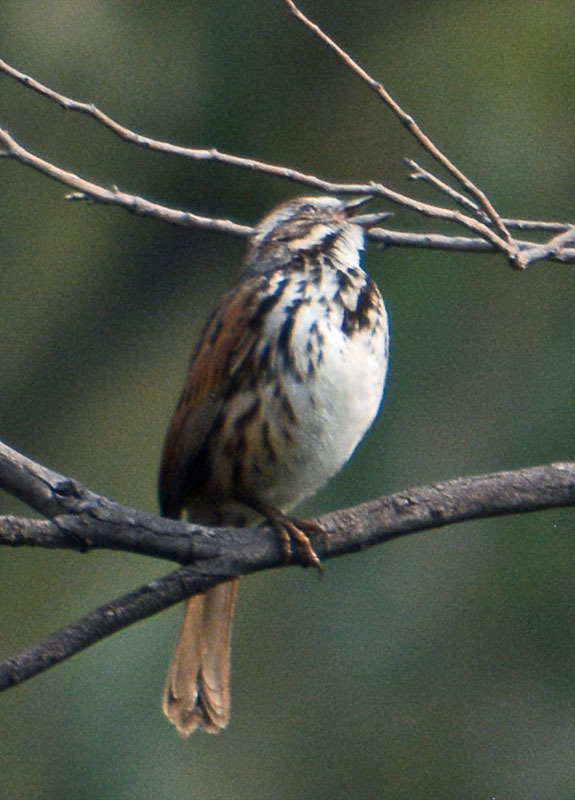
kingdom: Animalia
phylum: Chordata
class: Aves
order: Passeriformes
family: Passerellidae
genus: Melospiza
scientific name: Melospiza melodia
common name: Song sparrow
